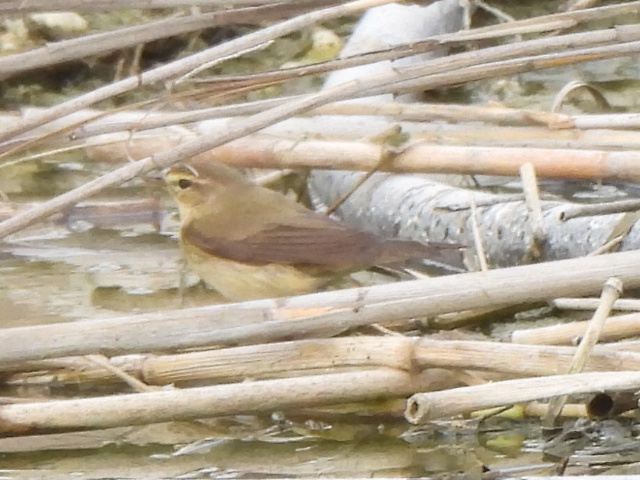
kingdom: Animalia
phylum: Chordata
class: Aves
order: Passeriformes
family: Phylloscopidae
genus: Phylloscopus
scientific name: Phylloscopus collybita
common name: Common chiffchaff
